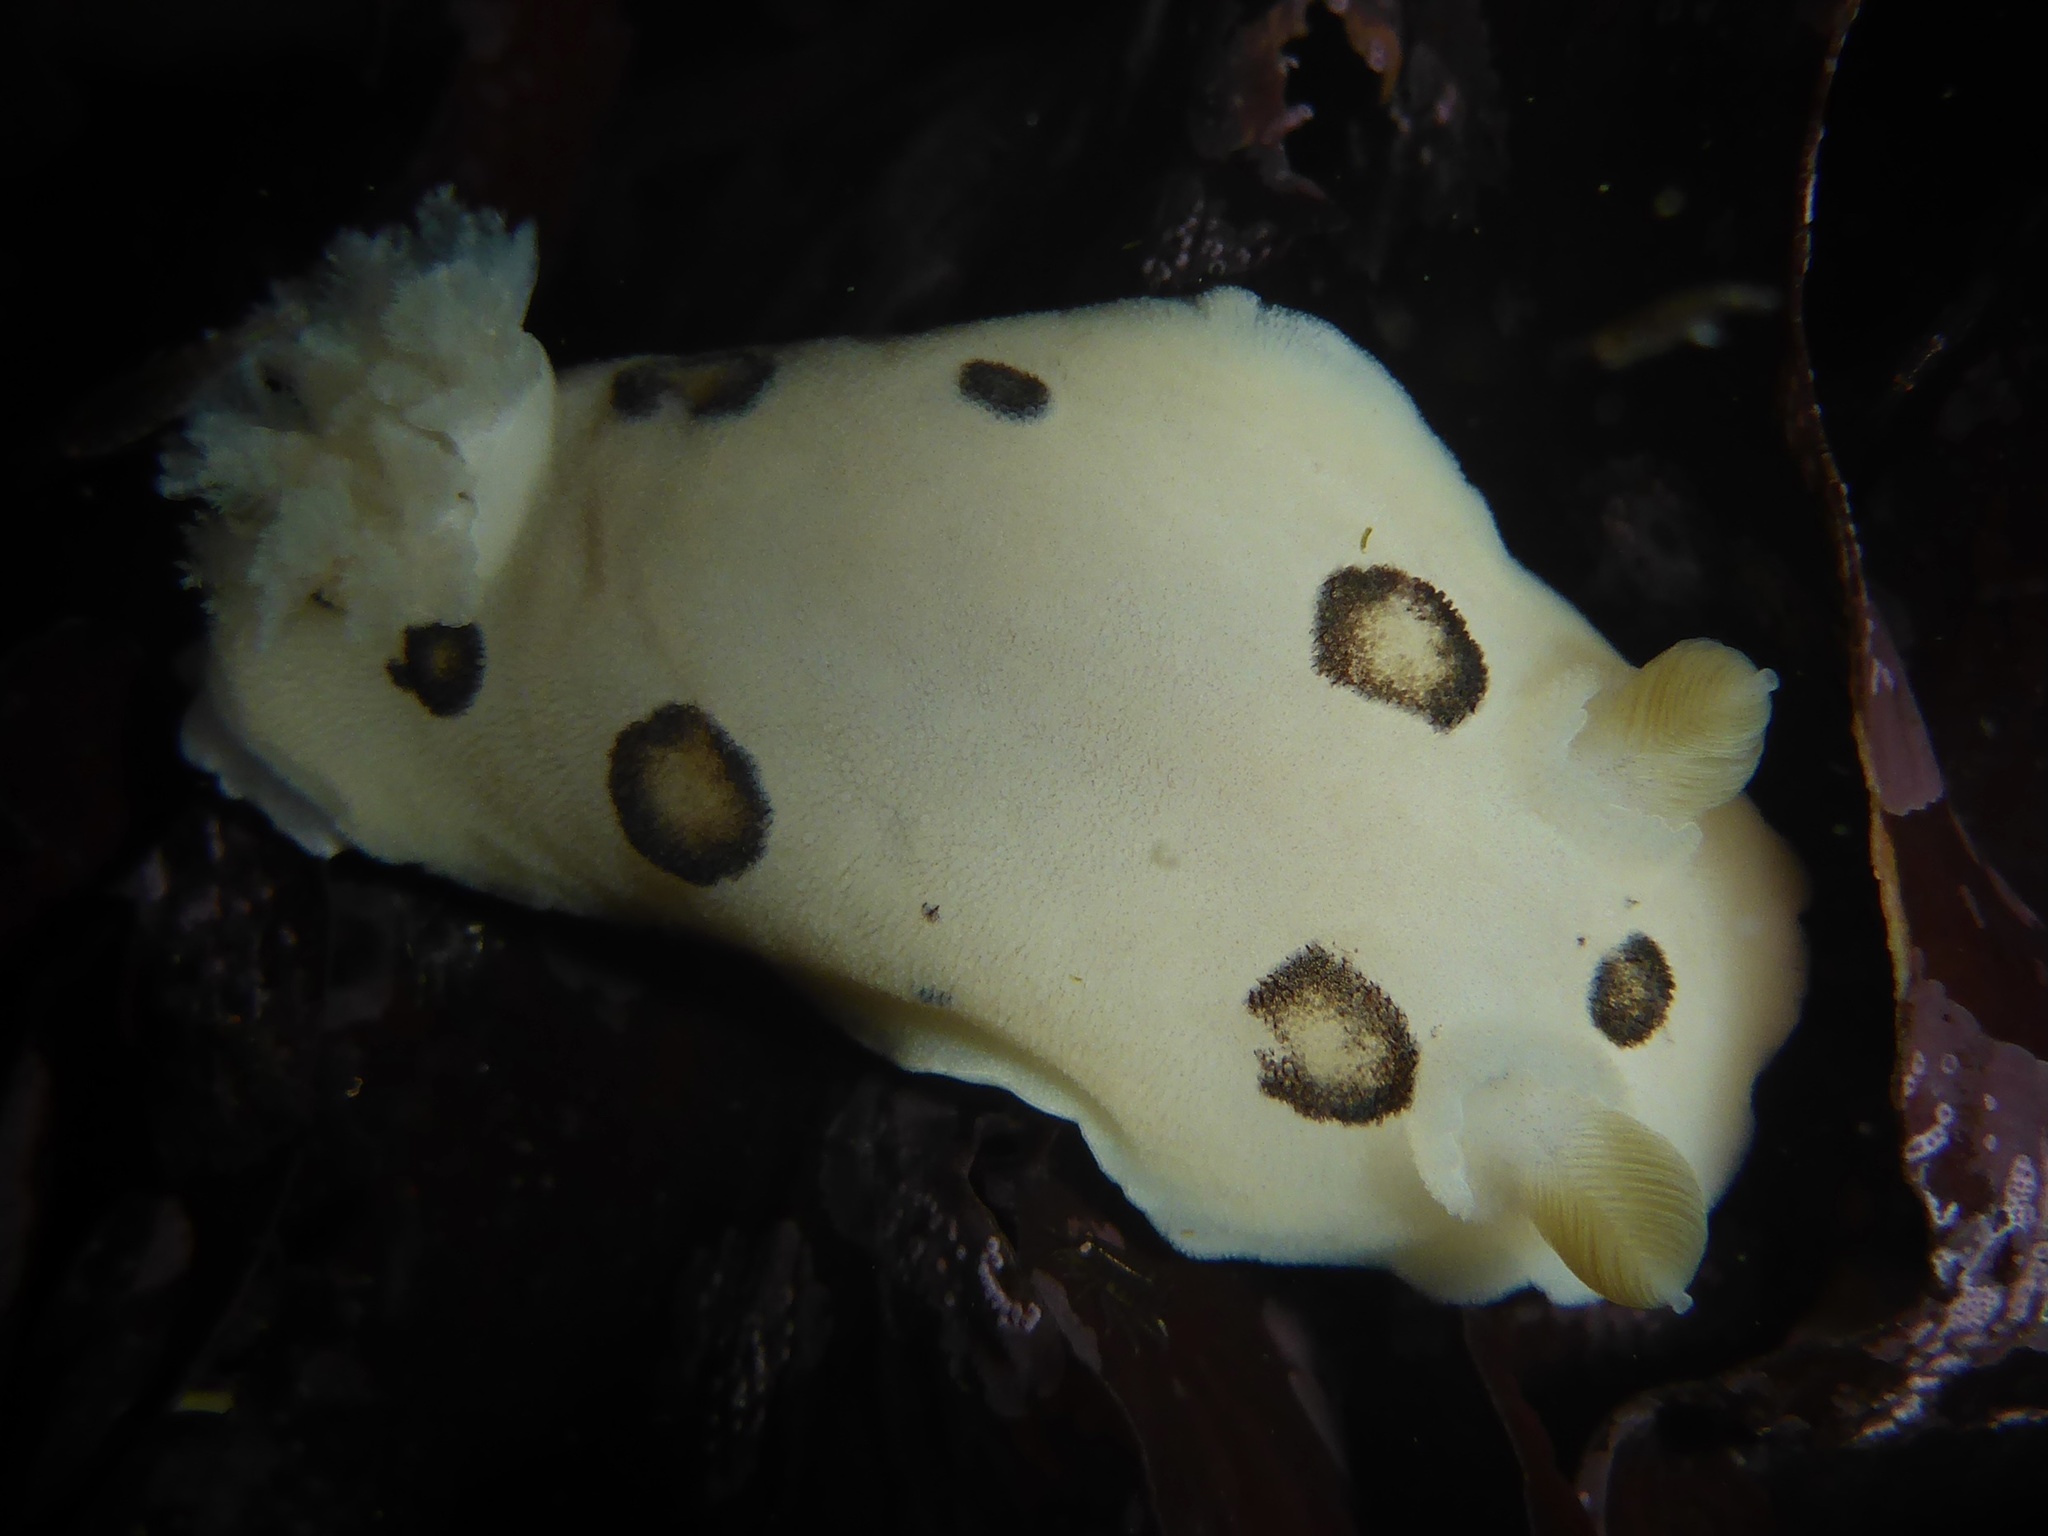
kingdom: Animalia
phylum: Mollusca
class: Gastropoda
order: Nudibranchia
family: Discodorididae
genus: Diaulula
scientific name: Diaulula sandiegensis
